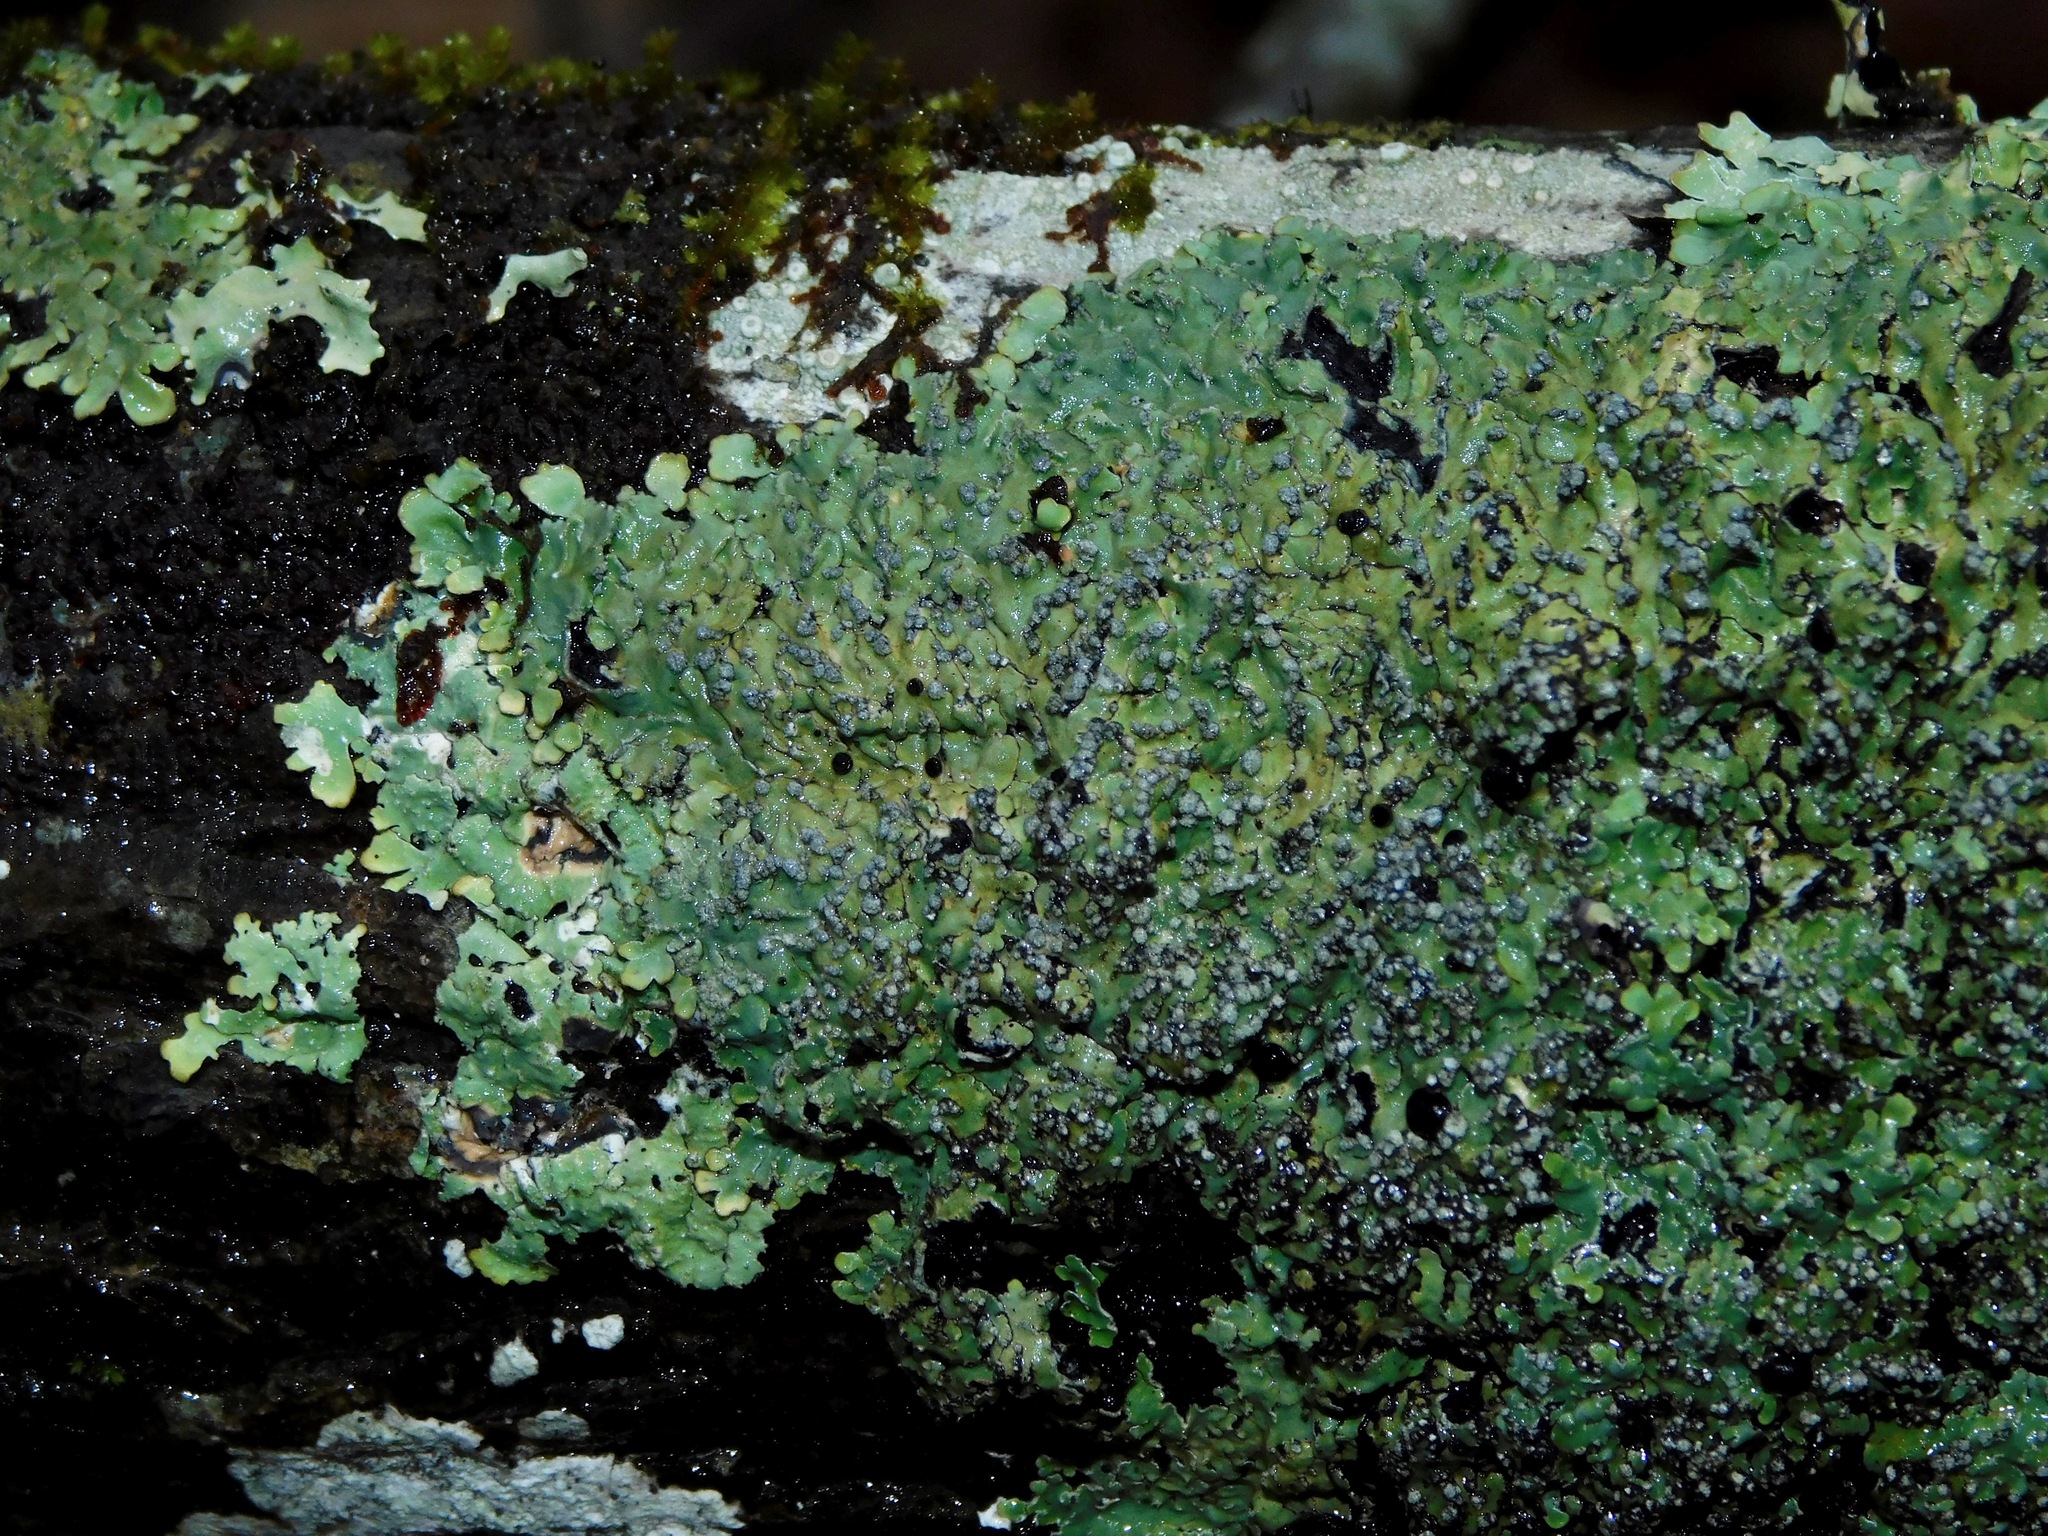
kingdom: Fungi
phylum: Ascomycota
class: Lecanoromycetes
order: Caliciales
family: Caliciaceae
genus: Pyxine
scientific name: Pyxine sorediata
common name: Mustard lichen
